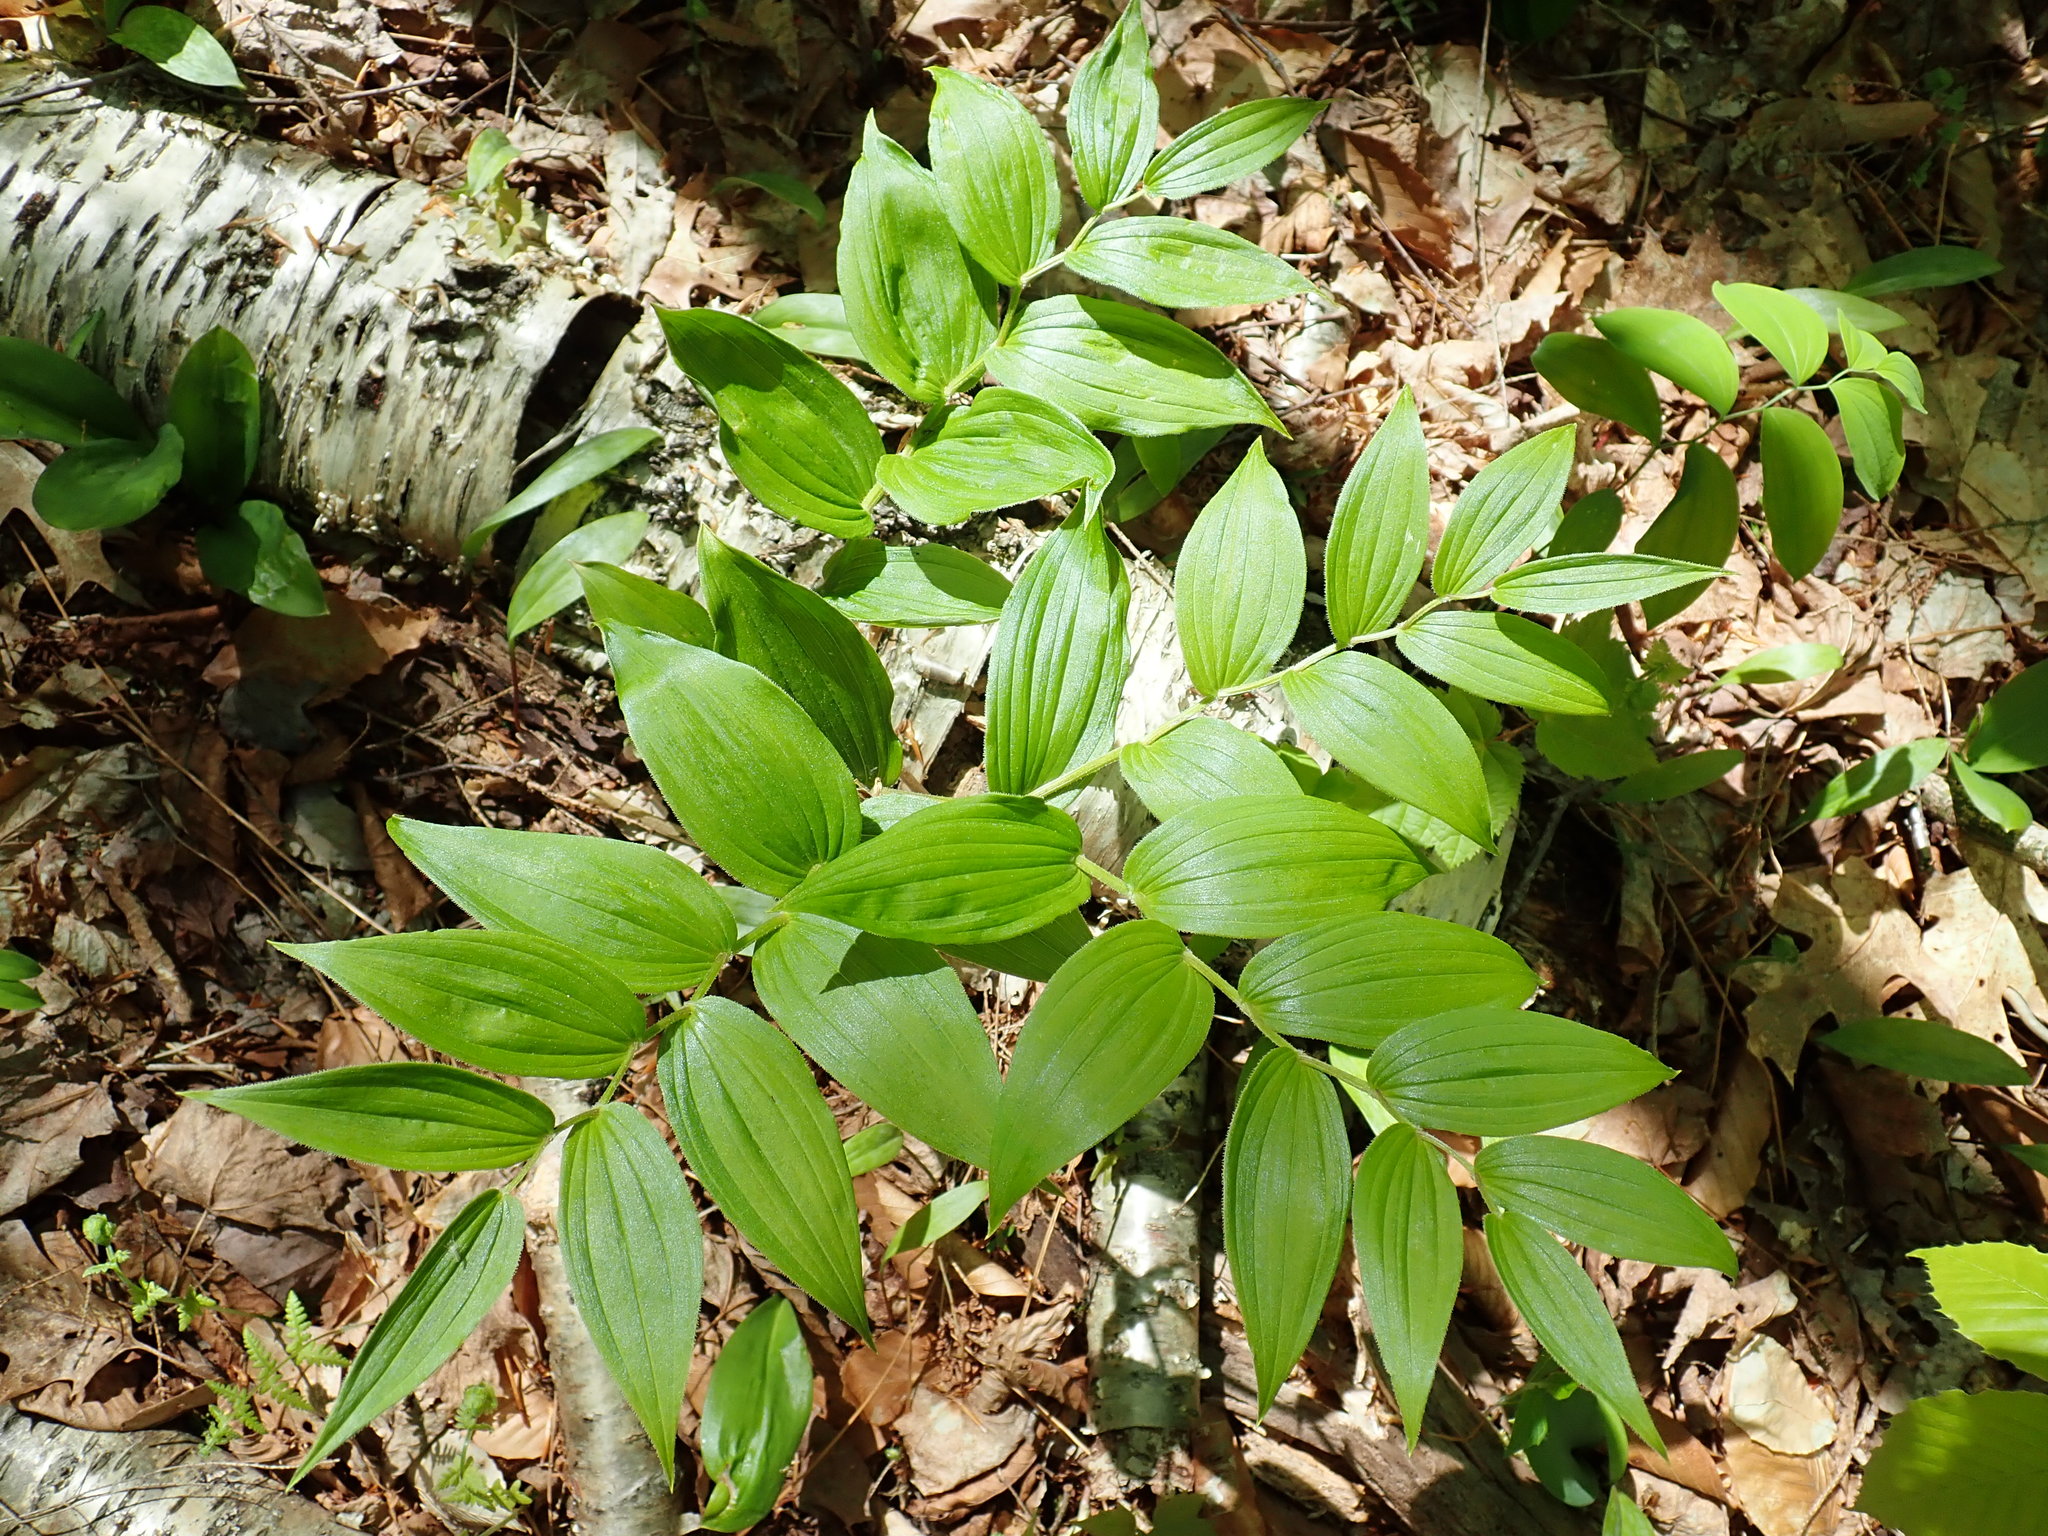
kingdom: Plantae
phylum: Tracheophyta
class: Liliopsida
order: Liliales
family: Liliaceae
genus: Streptopus
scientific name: Streptopus lanceolatus
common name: Rose mandarin
